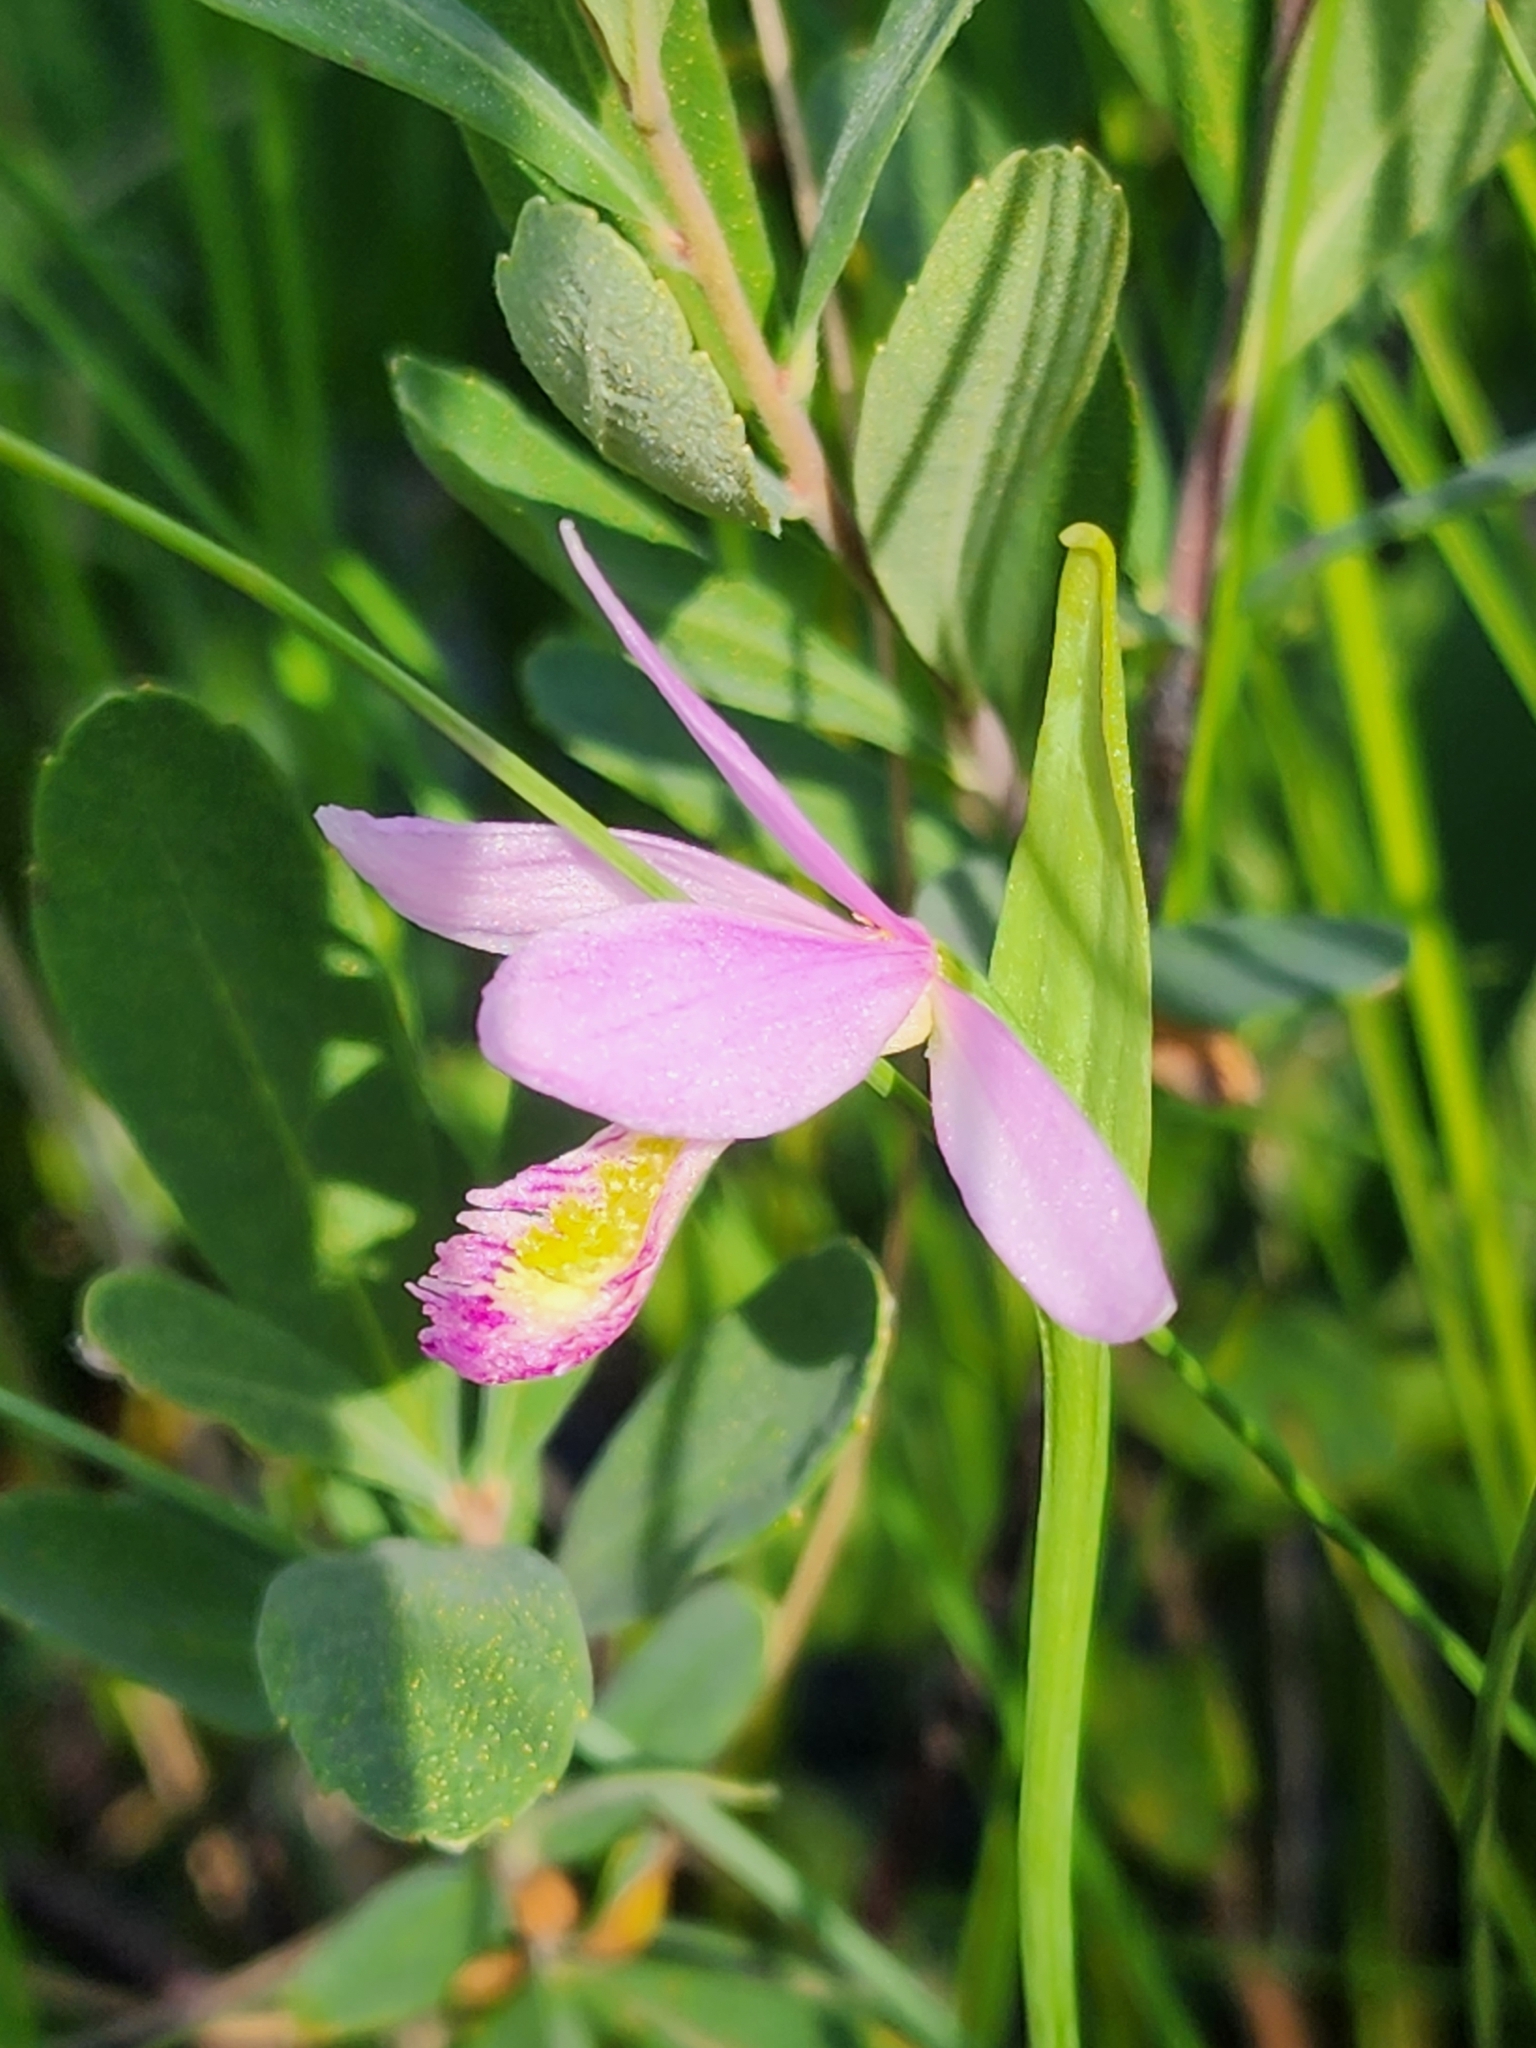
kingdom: Plantae
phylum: Tracheophyta
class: Liliopsida
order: Asparagales
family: Orchidaceae
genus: Pogonia
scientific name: Pogonia ophioglossoides
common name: Rose pogonia
